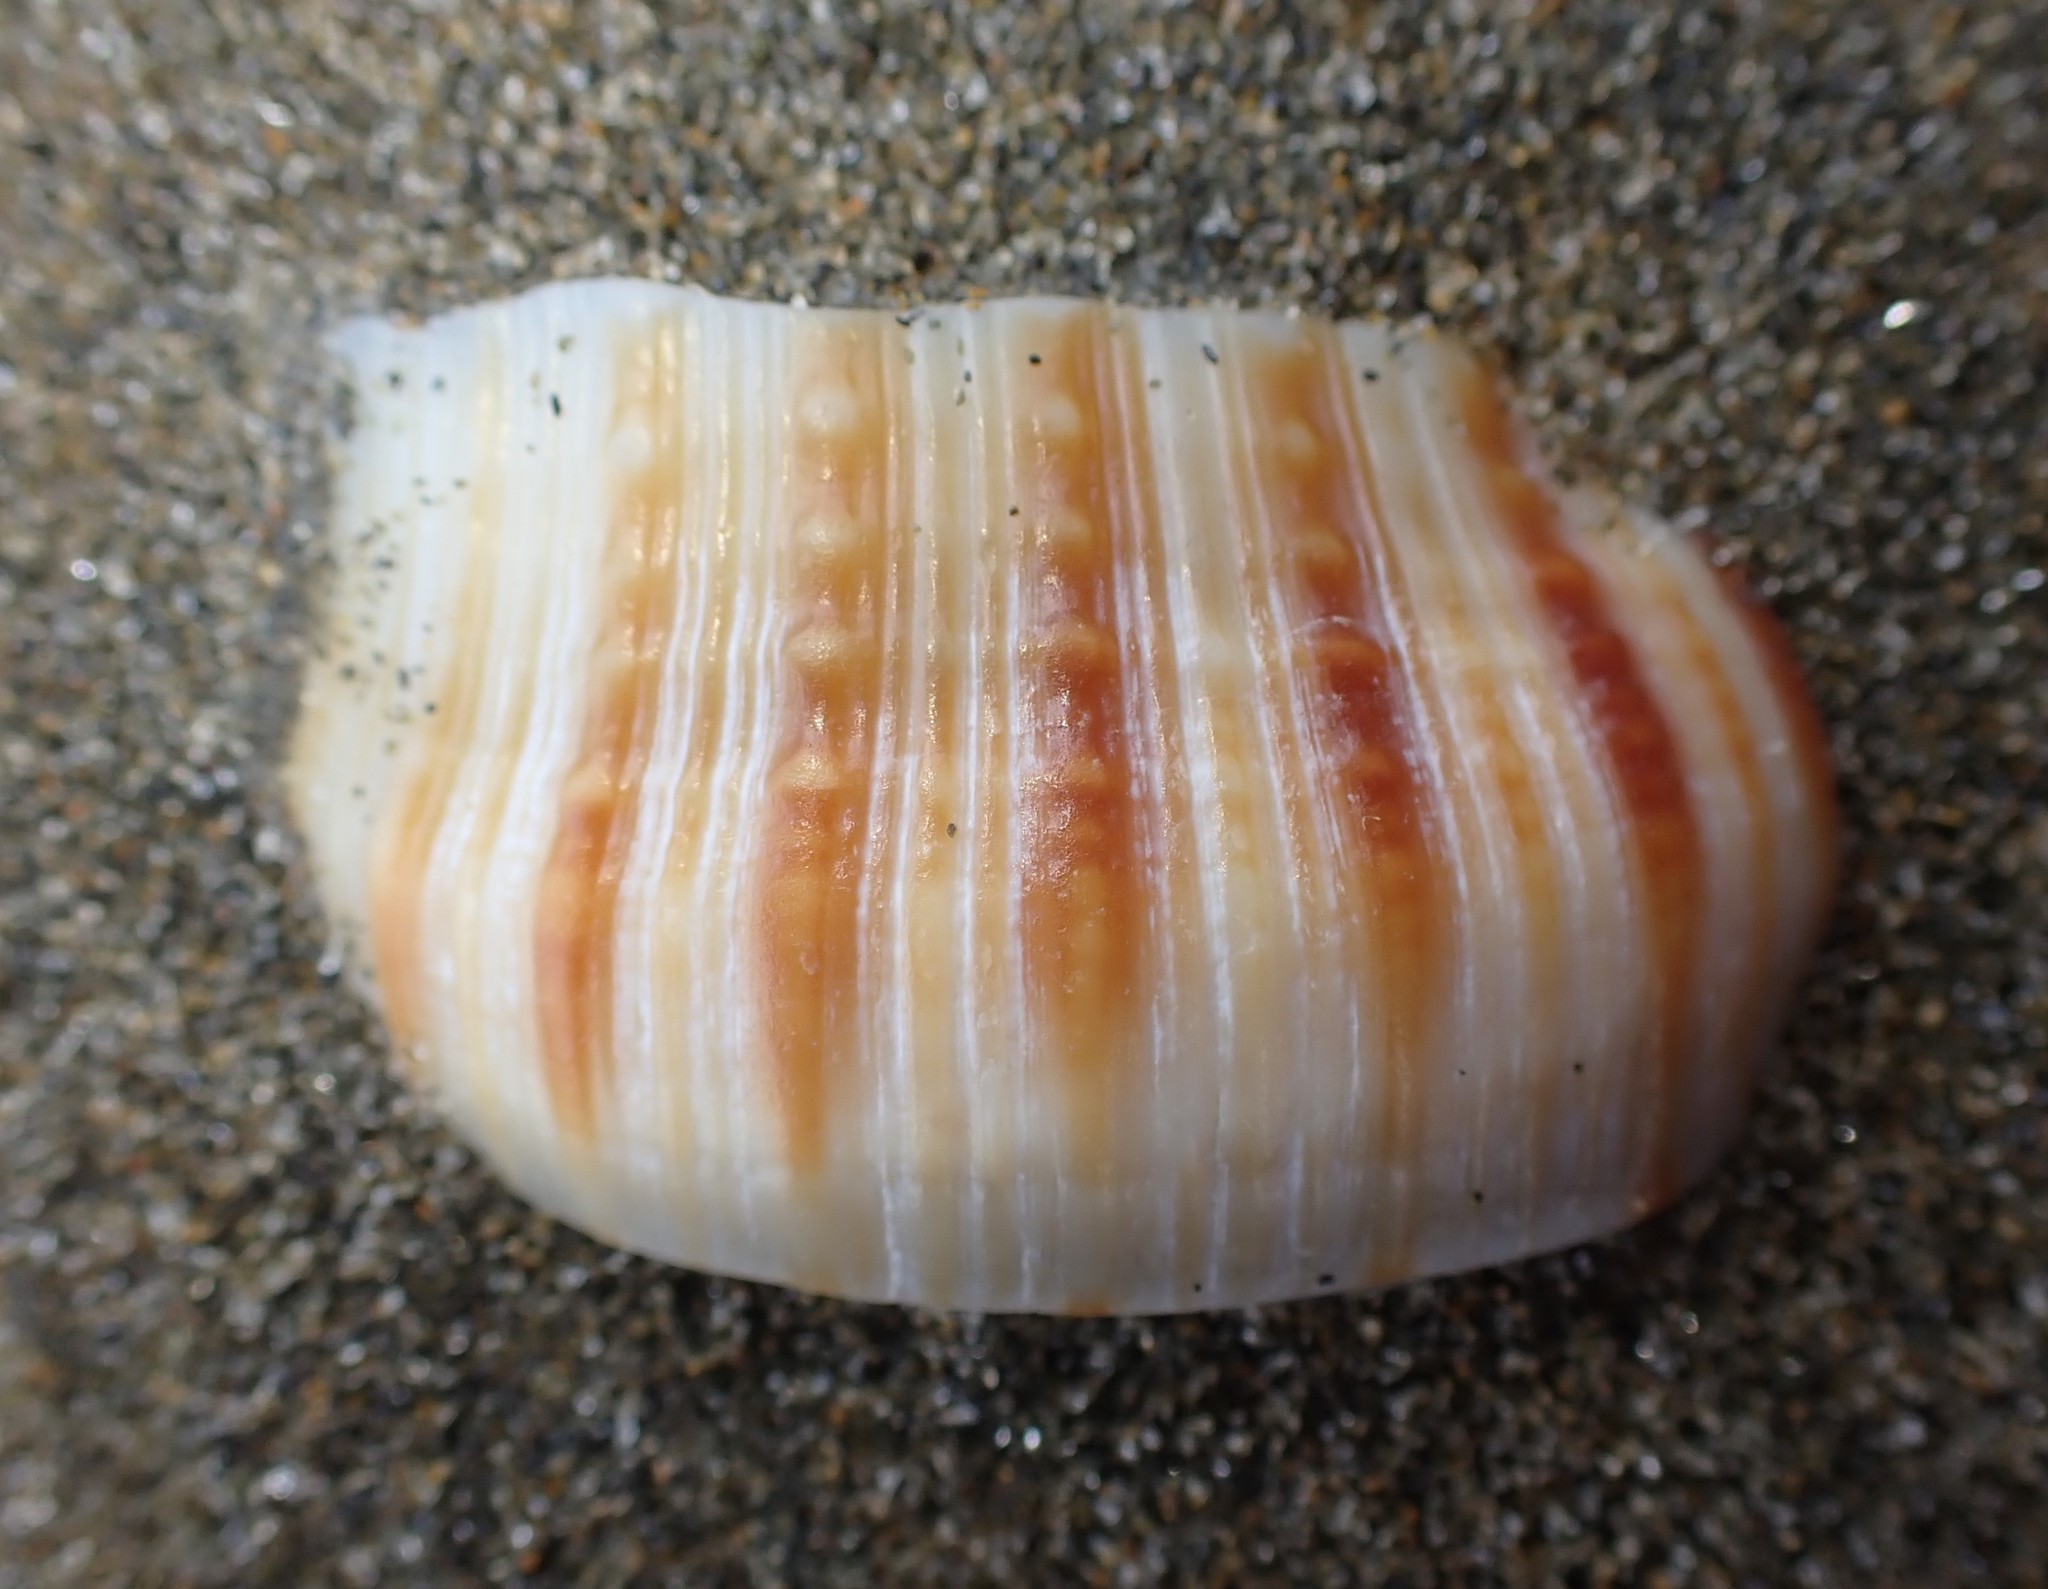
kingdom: Animalia
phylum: Mollusca
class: Gastropoda
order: Littorinimorpha
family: Cymatiidae
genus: Argobuccinum
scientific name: Argobuccinum pustulosum
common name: Pustular triton
